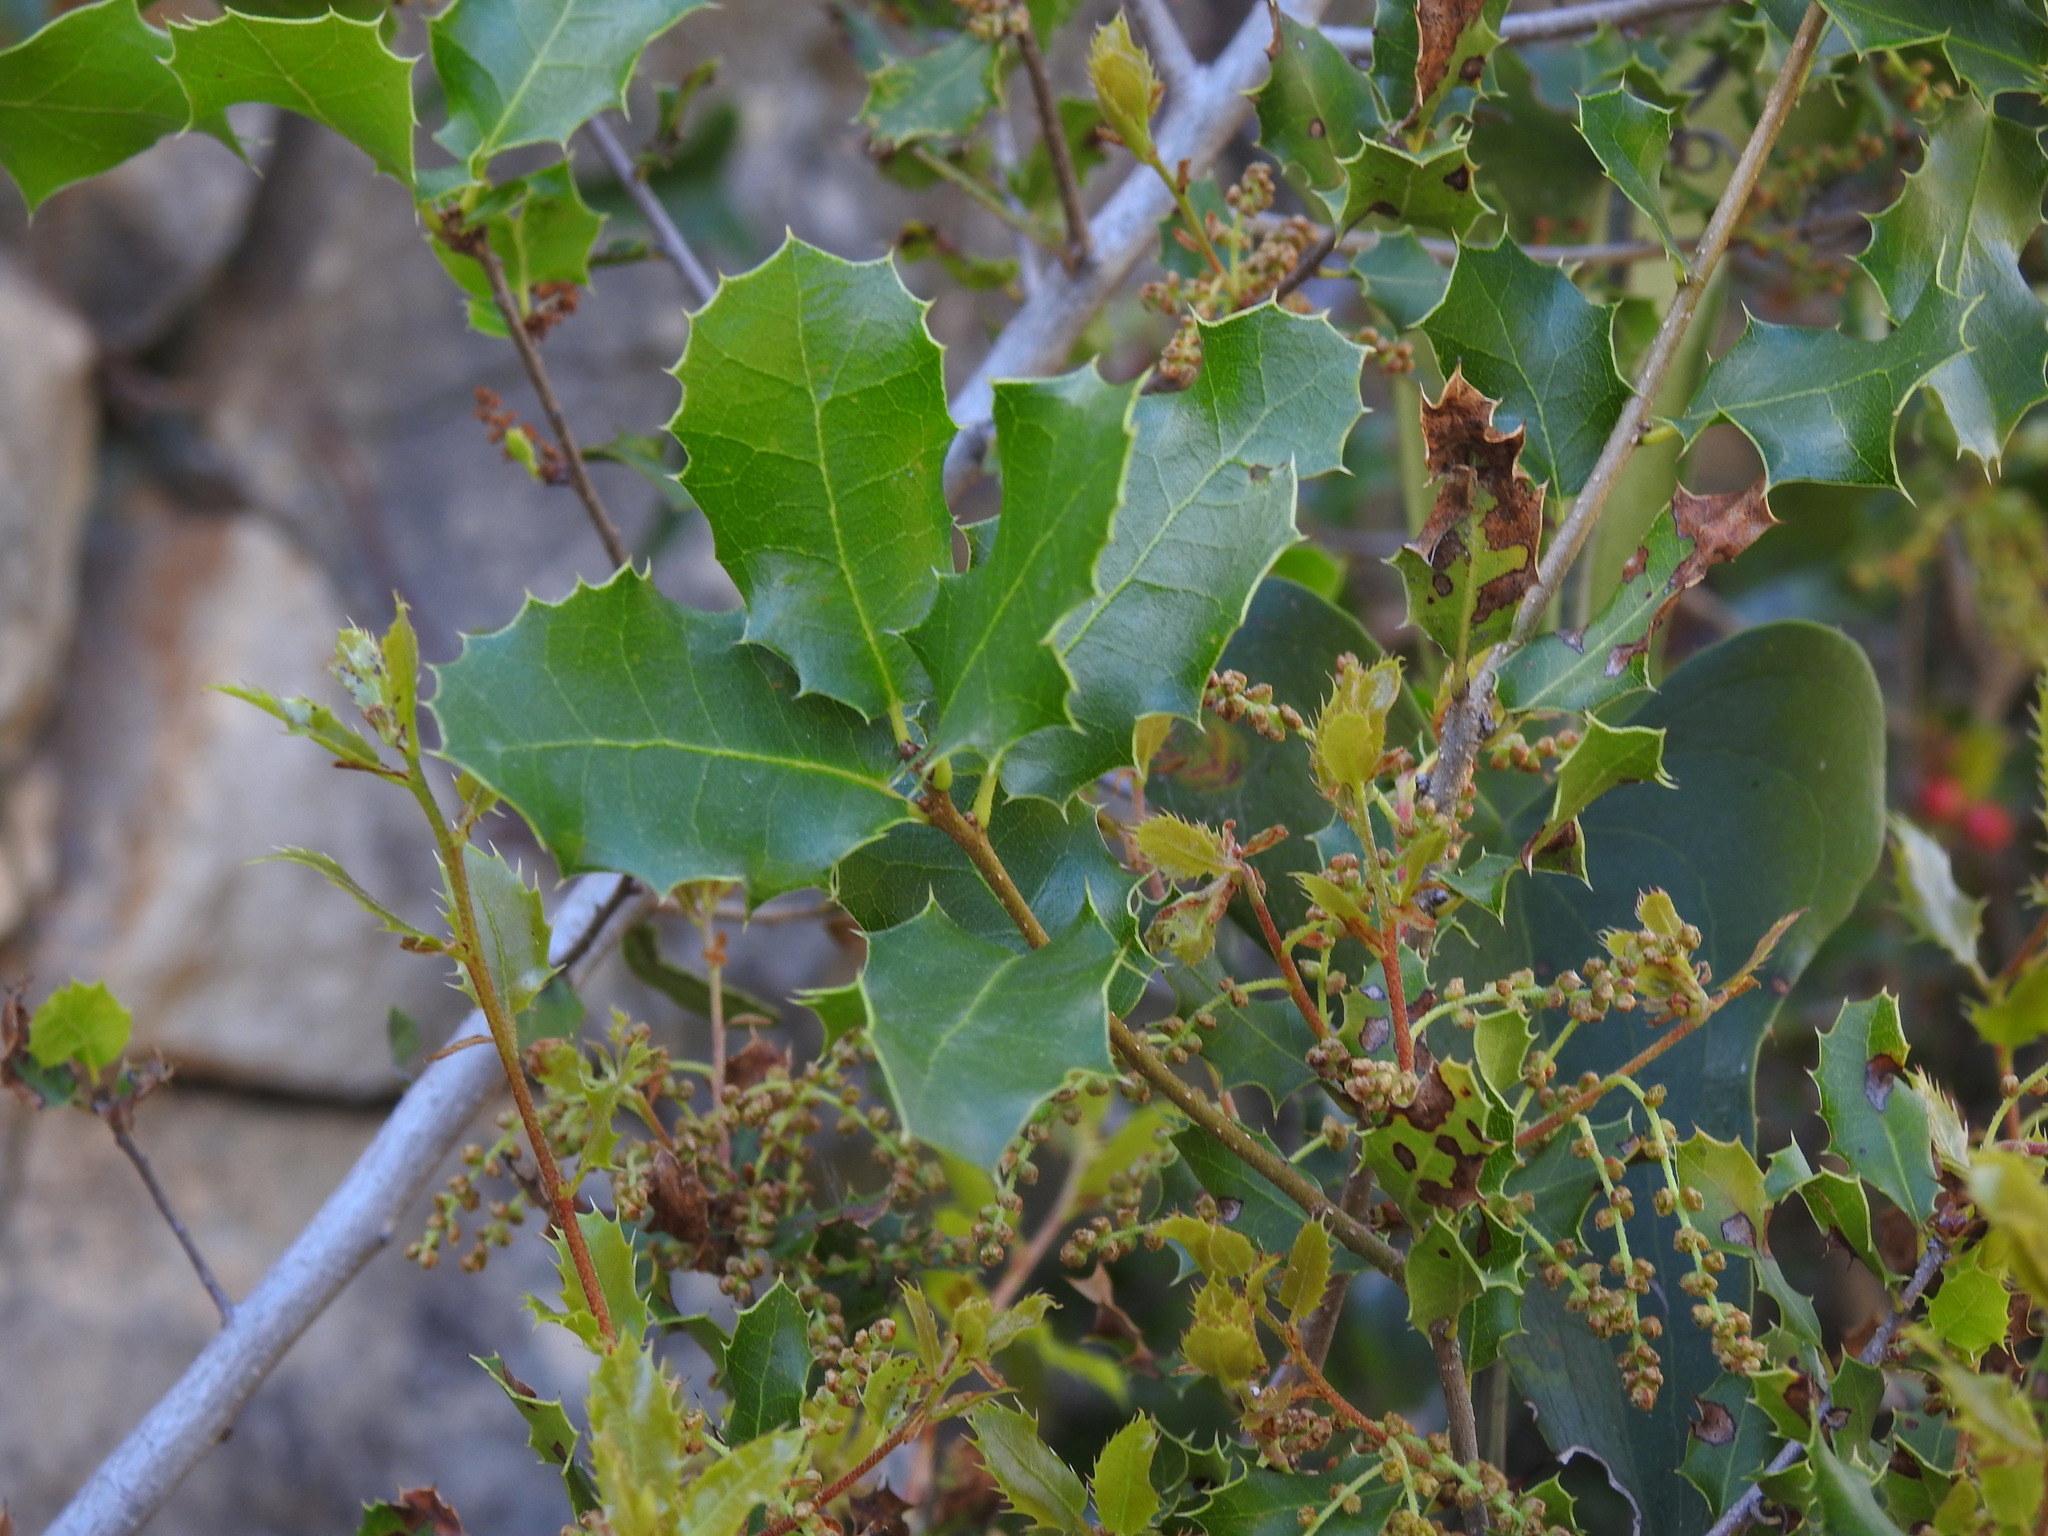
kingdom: Plantae
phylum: Tracheophyta
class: Magnoliopsida
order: Fagales
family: Fagaceae
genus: Quercus
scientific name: Quercus coccifera
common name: Kermes oak
